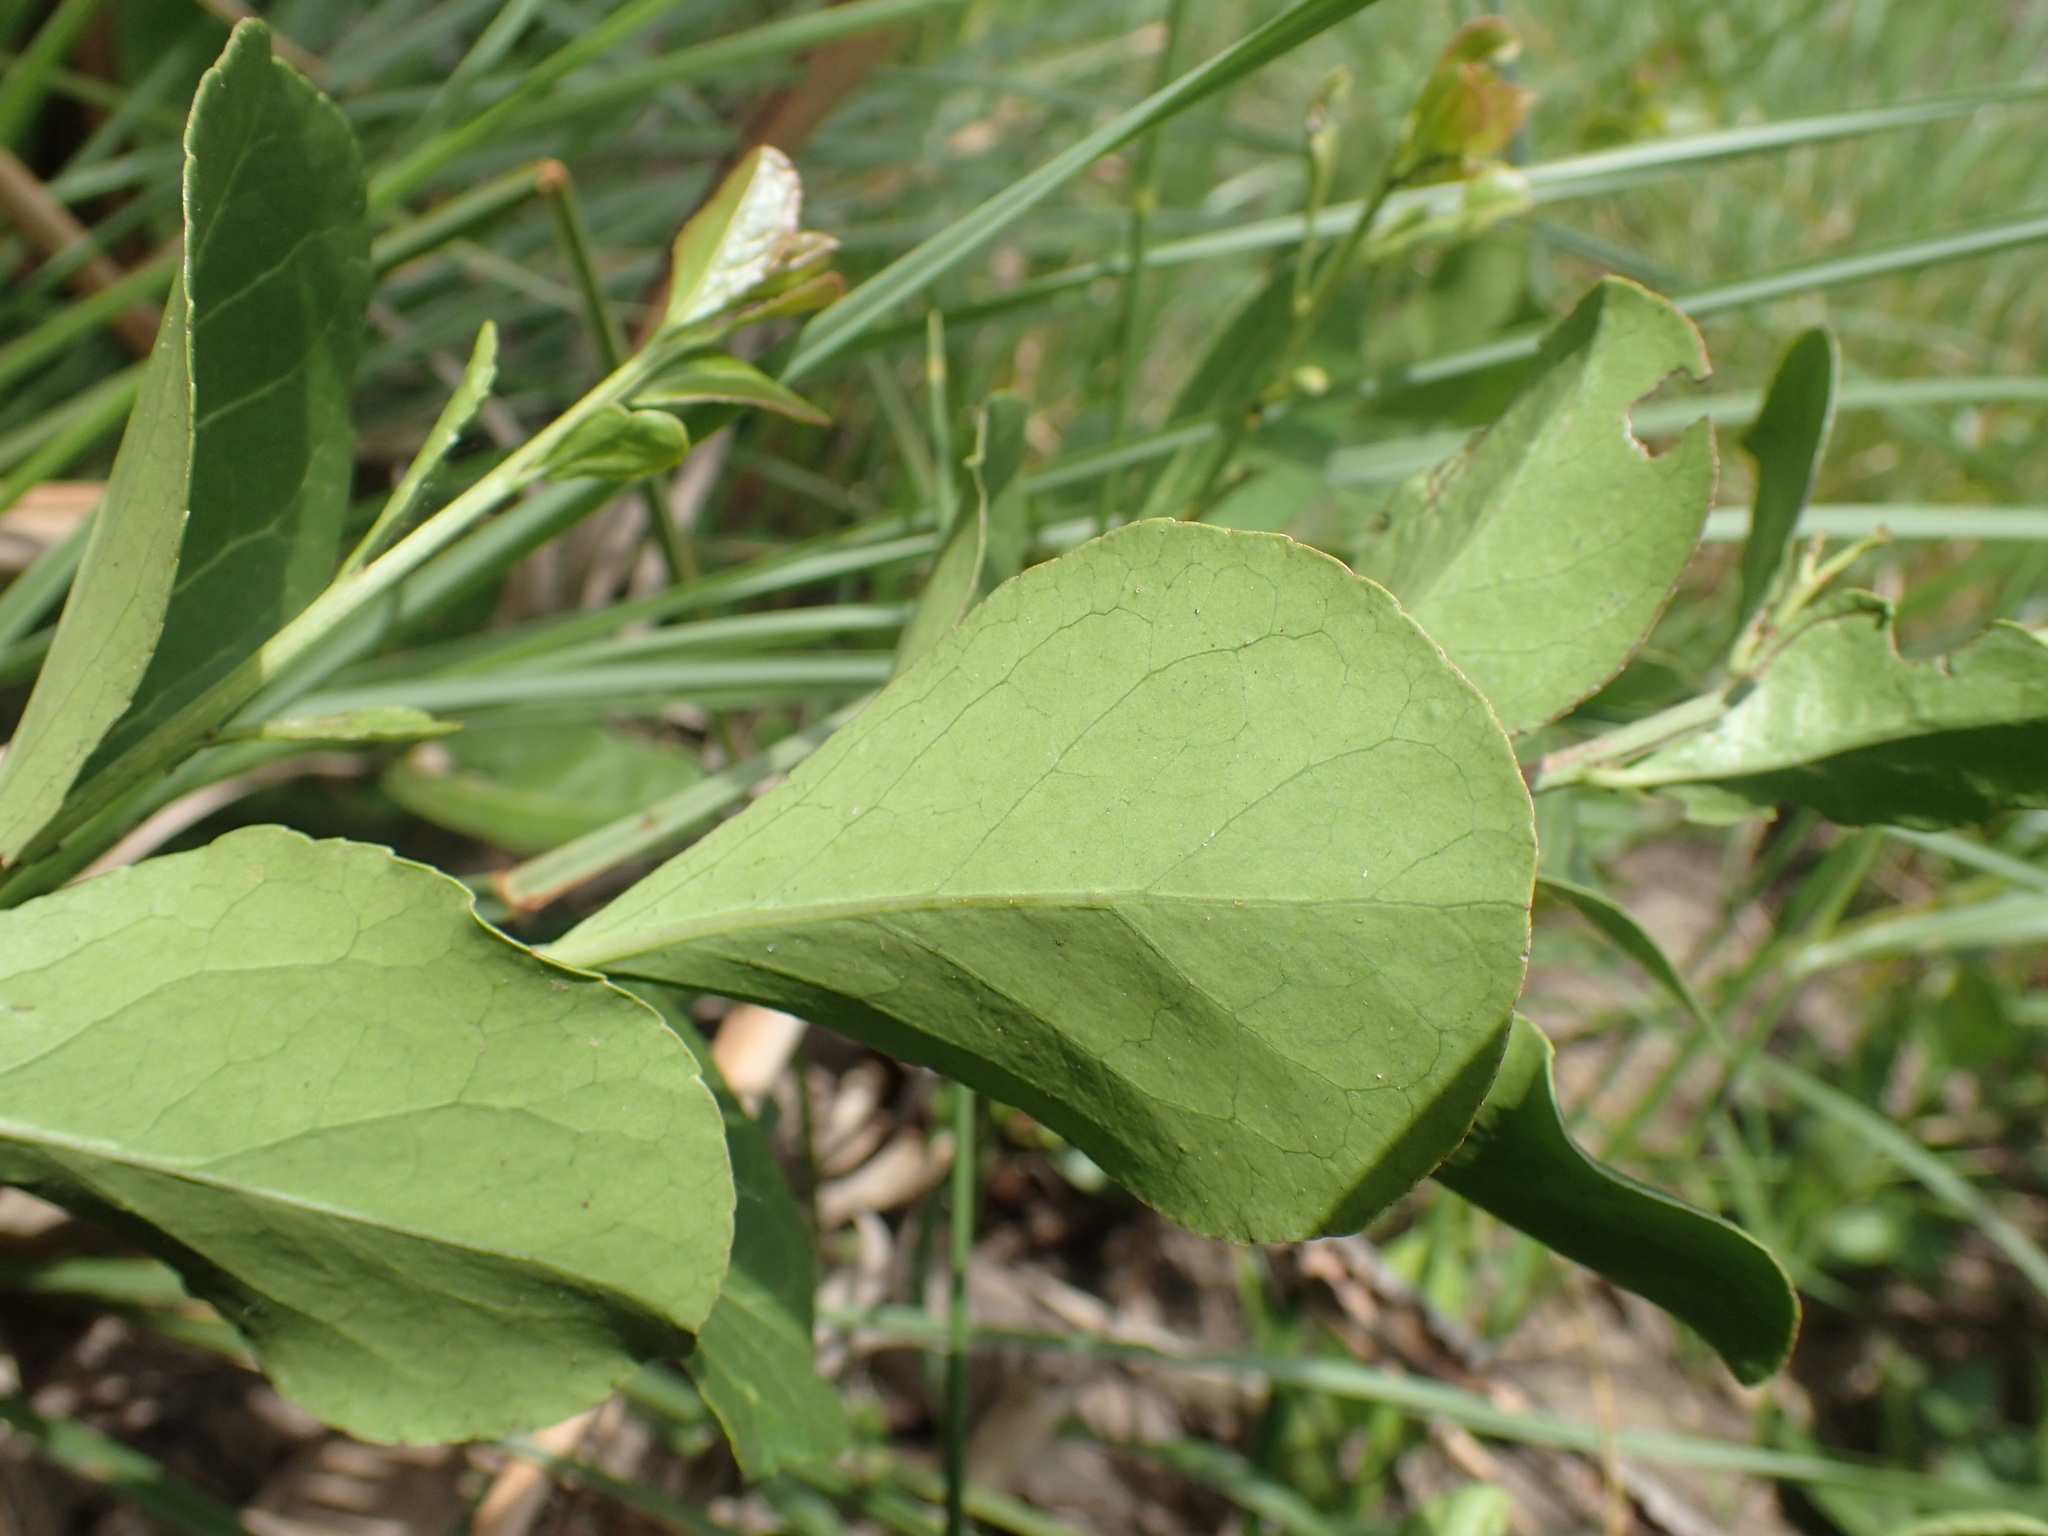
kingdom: Plantae
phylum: Tracheophyta
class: Magnoliopsida
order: Celastrales
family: Celastraceae
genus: Gymnosporia
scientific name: Gymnosporia markwardii
